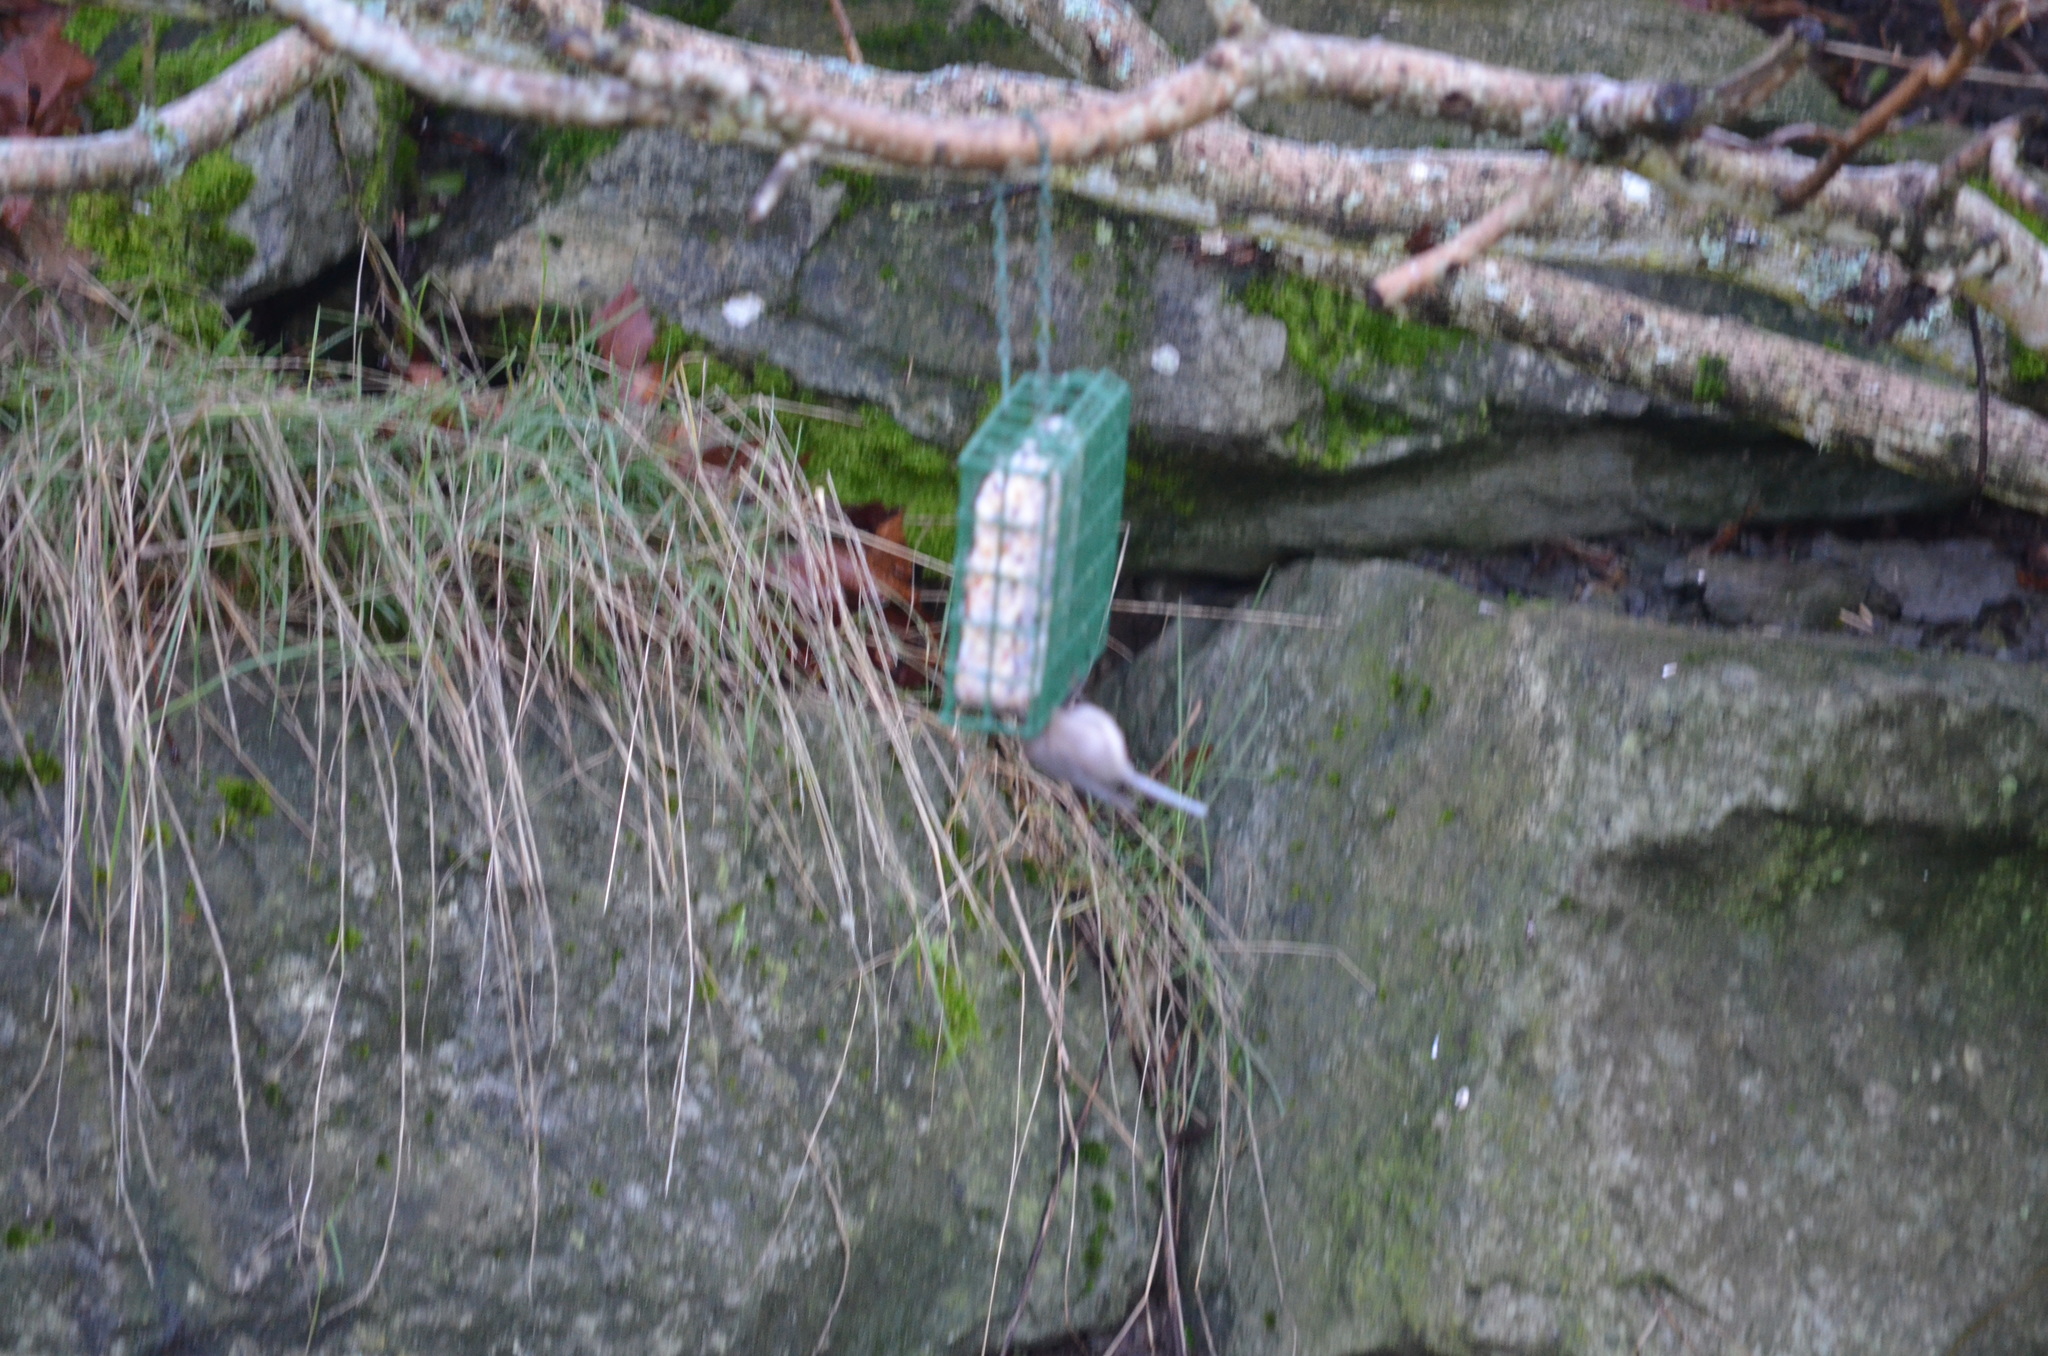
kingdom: Animalia
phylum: Chordata
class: Aves
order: Passeriformes
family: Aegithalidae
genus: Psaltriparus
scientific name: Psaltriparus minimus
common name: American bushtit
